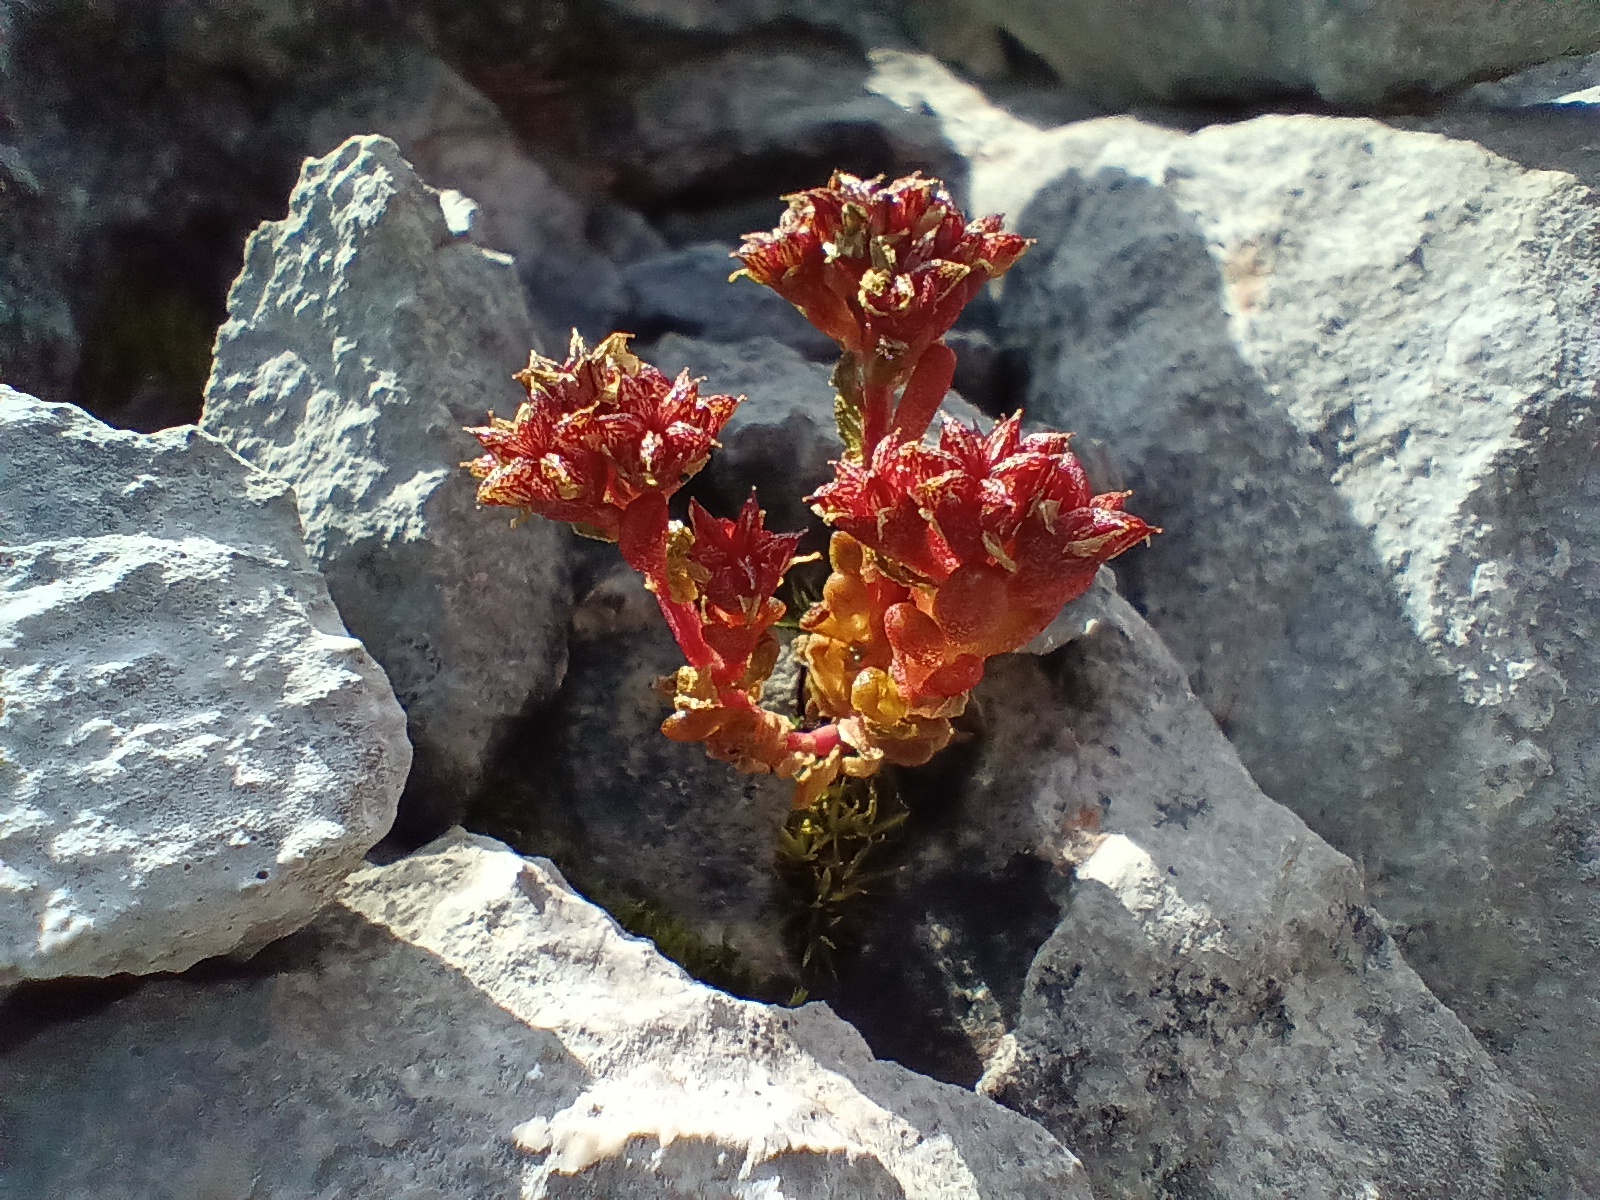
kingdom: Plantae
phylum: Tracheophyta
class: Magnoliopsida
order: Saxifragales
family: Crassulaceae
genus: Sedum
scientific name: Sedum atratum
